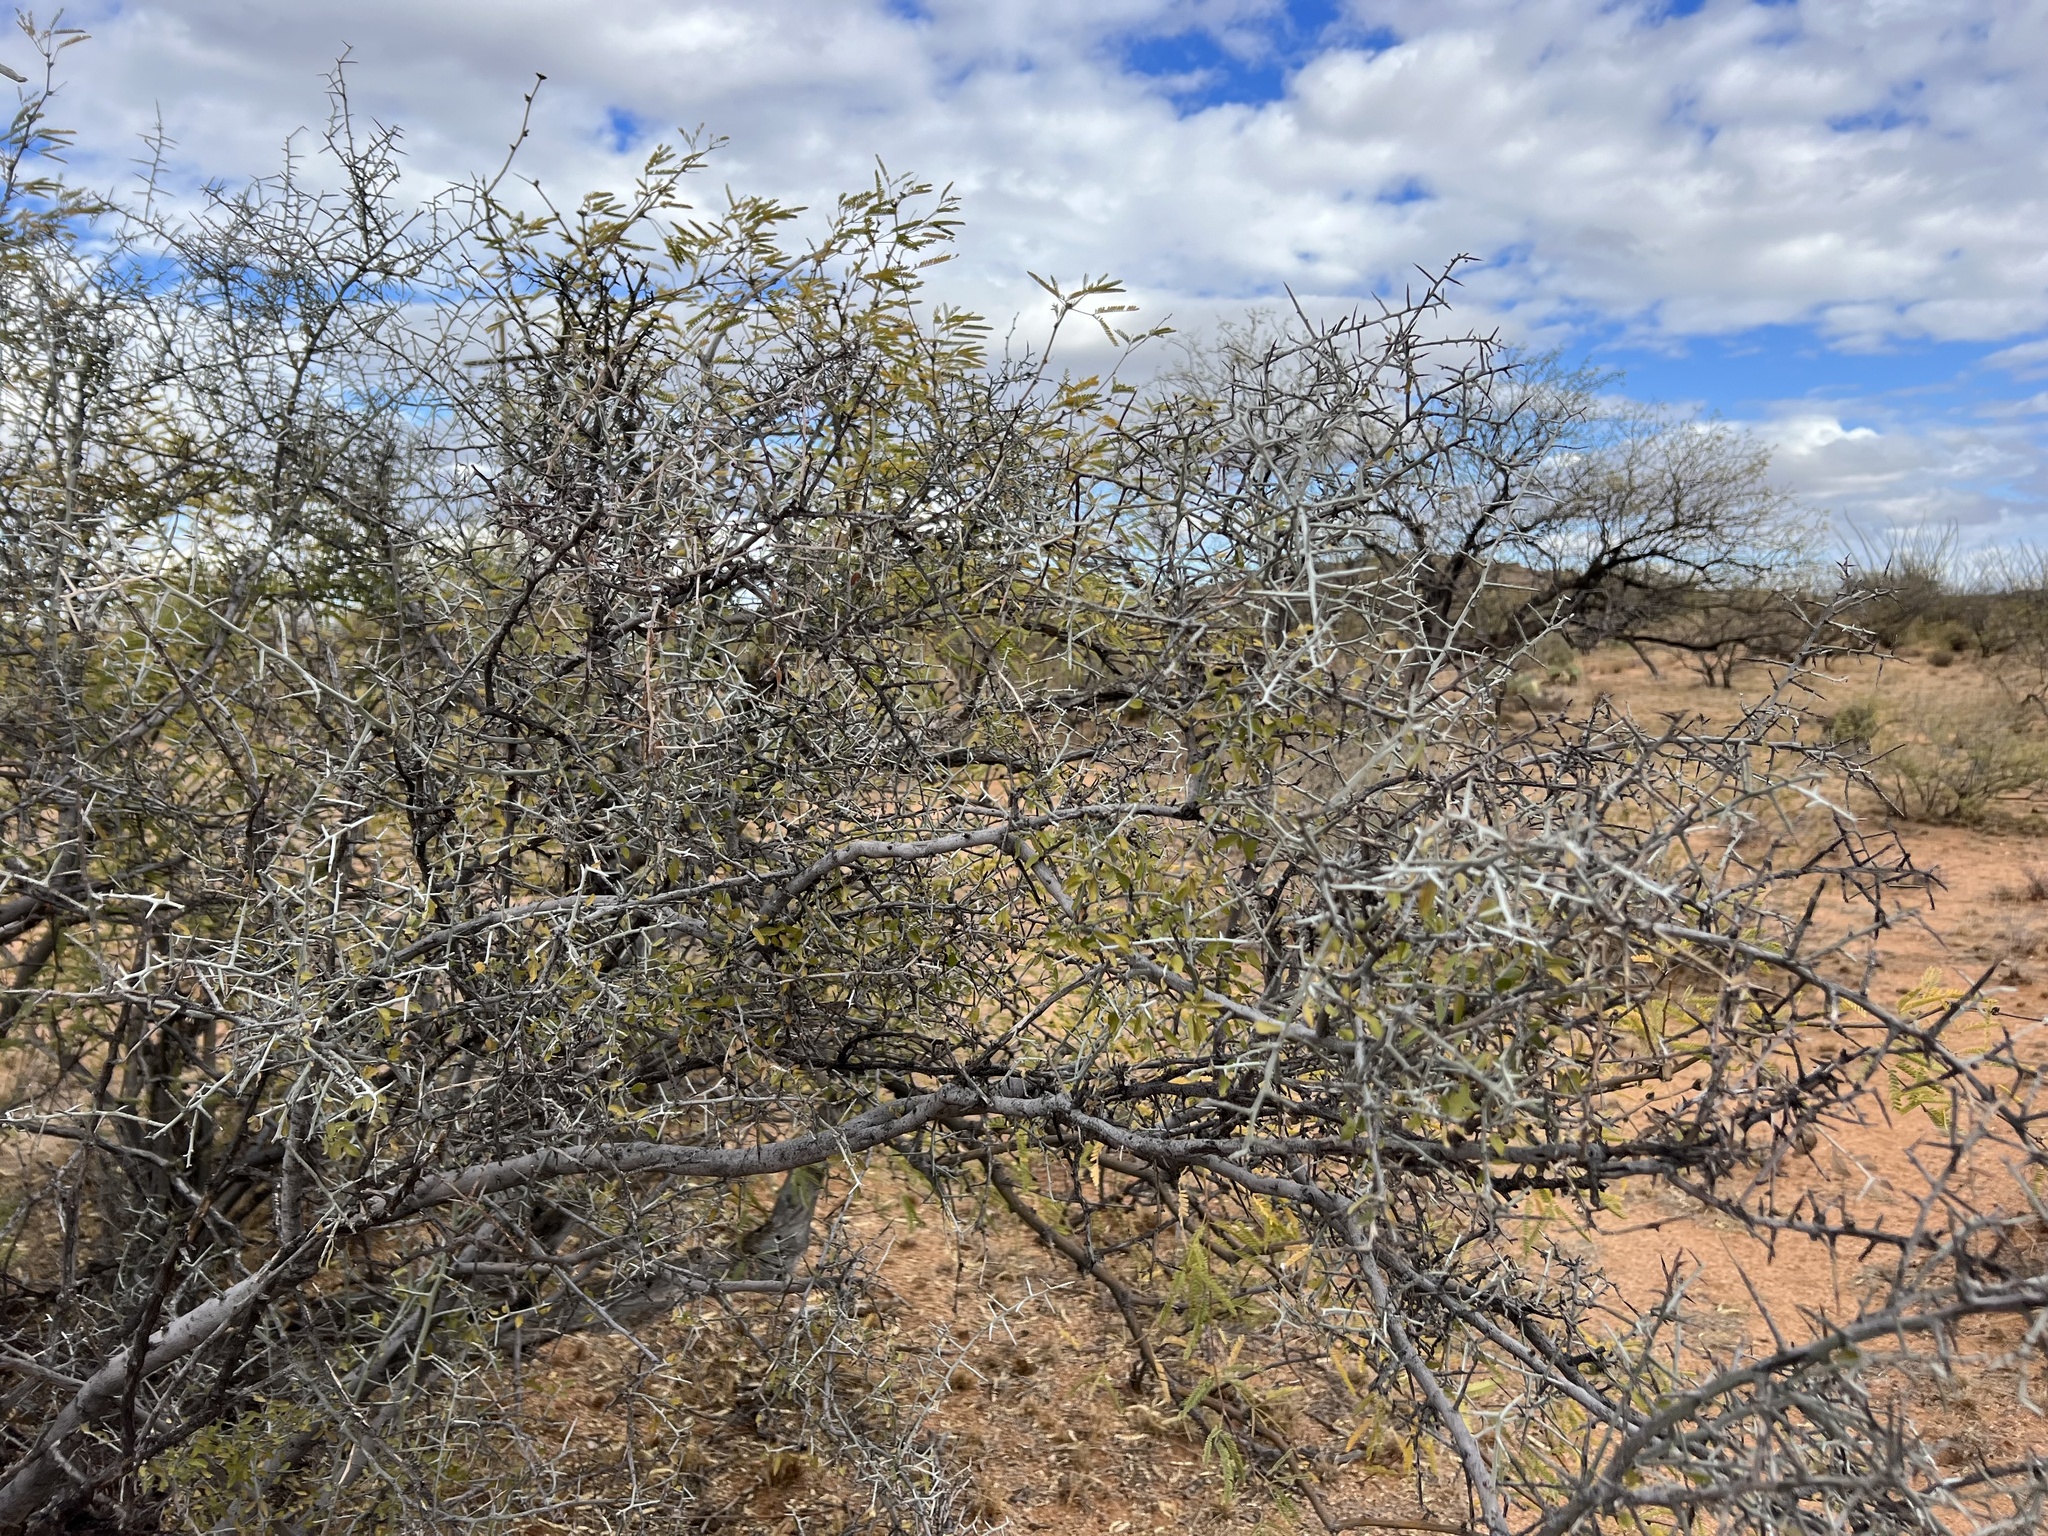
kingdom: Plantae
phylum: Tracheophyta
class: Magnoliopsida
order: Rosales
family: Rhamnaceae
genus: Sarcomphalus
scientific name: Sarcomphalus obtusifolius
